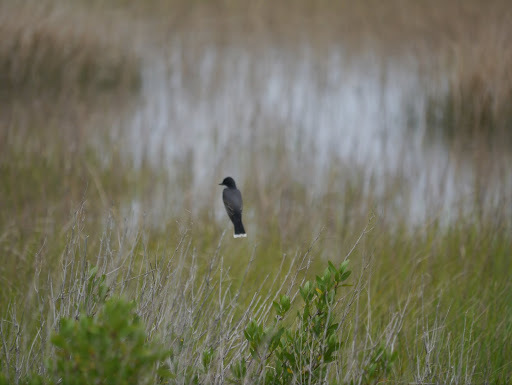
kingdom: Animalia
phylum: Chordata
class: Aves
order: Passeriformes
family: Tyrannidae
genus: Tyrannus
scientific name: Tyrannus tyrannus
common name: Eastern kingbird
